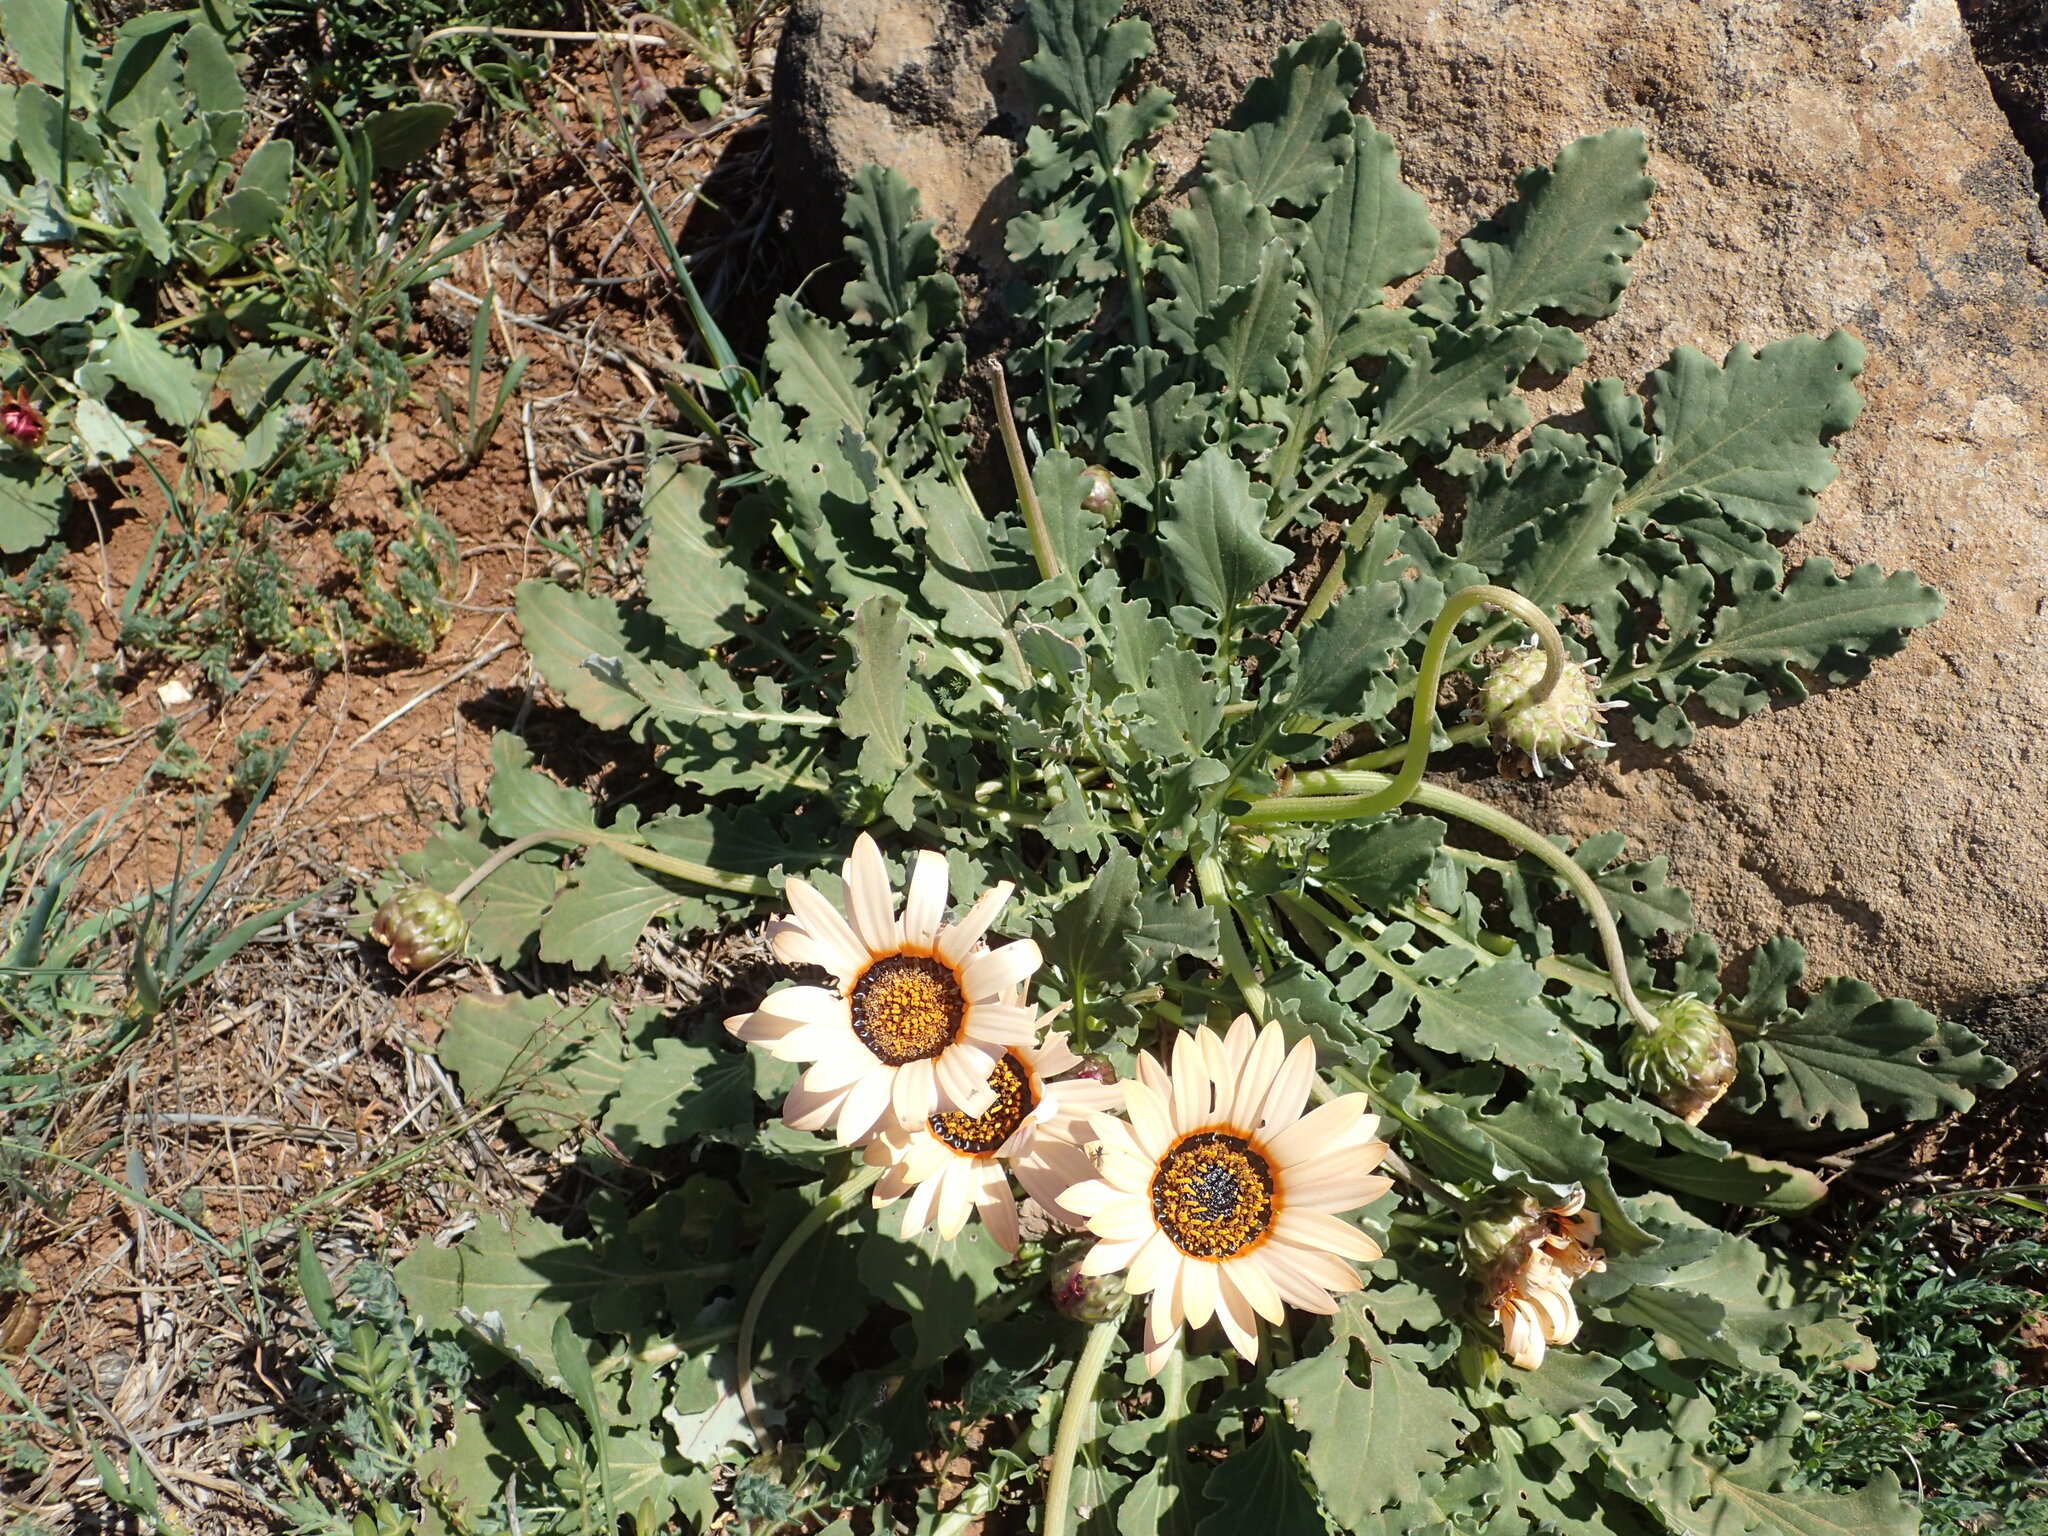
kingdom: Plantae
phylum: Tracheophyta
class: Magnoliopsida
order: Asterales
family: Asteraceae
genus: Arctotis
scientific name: Arctotis acaulis
